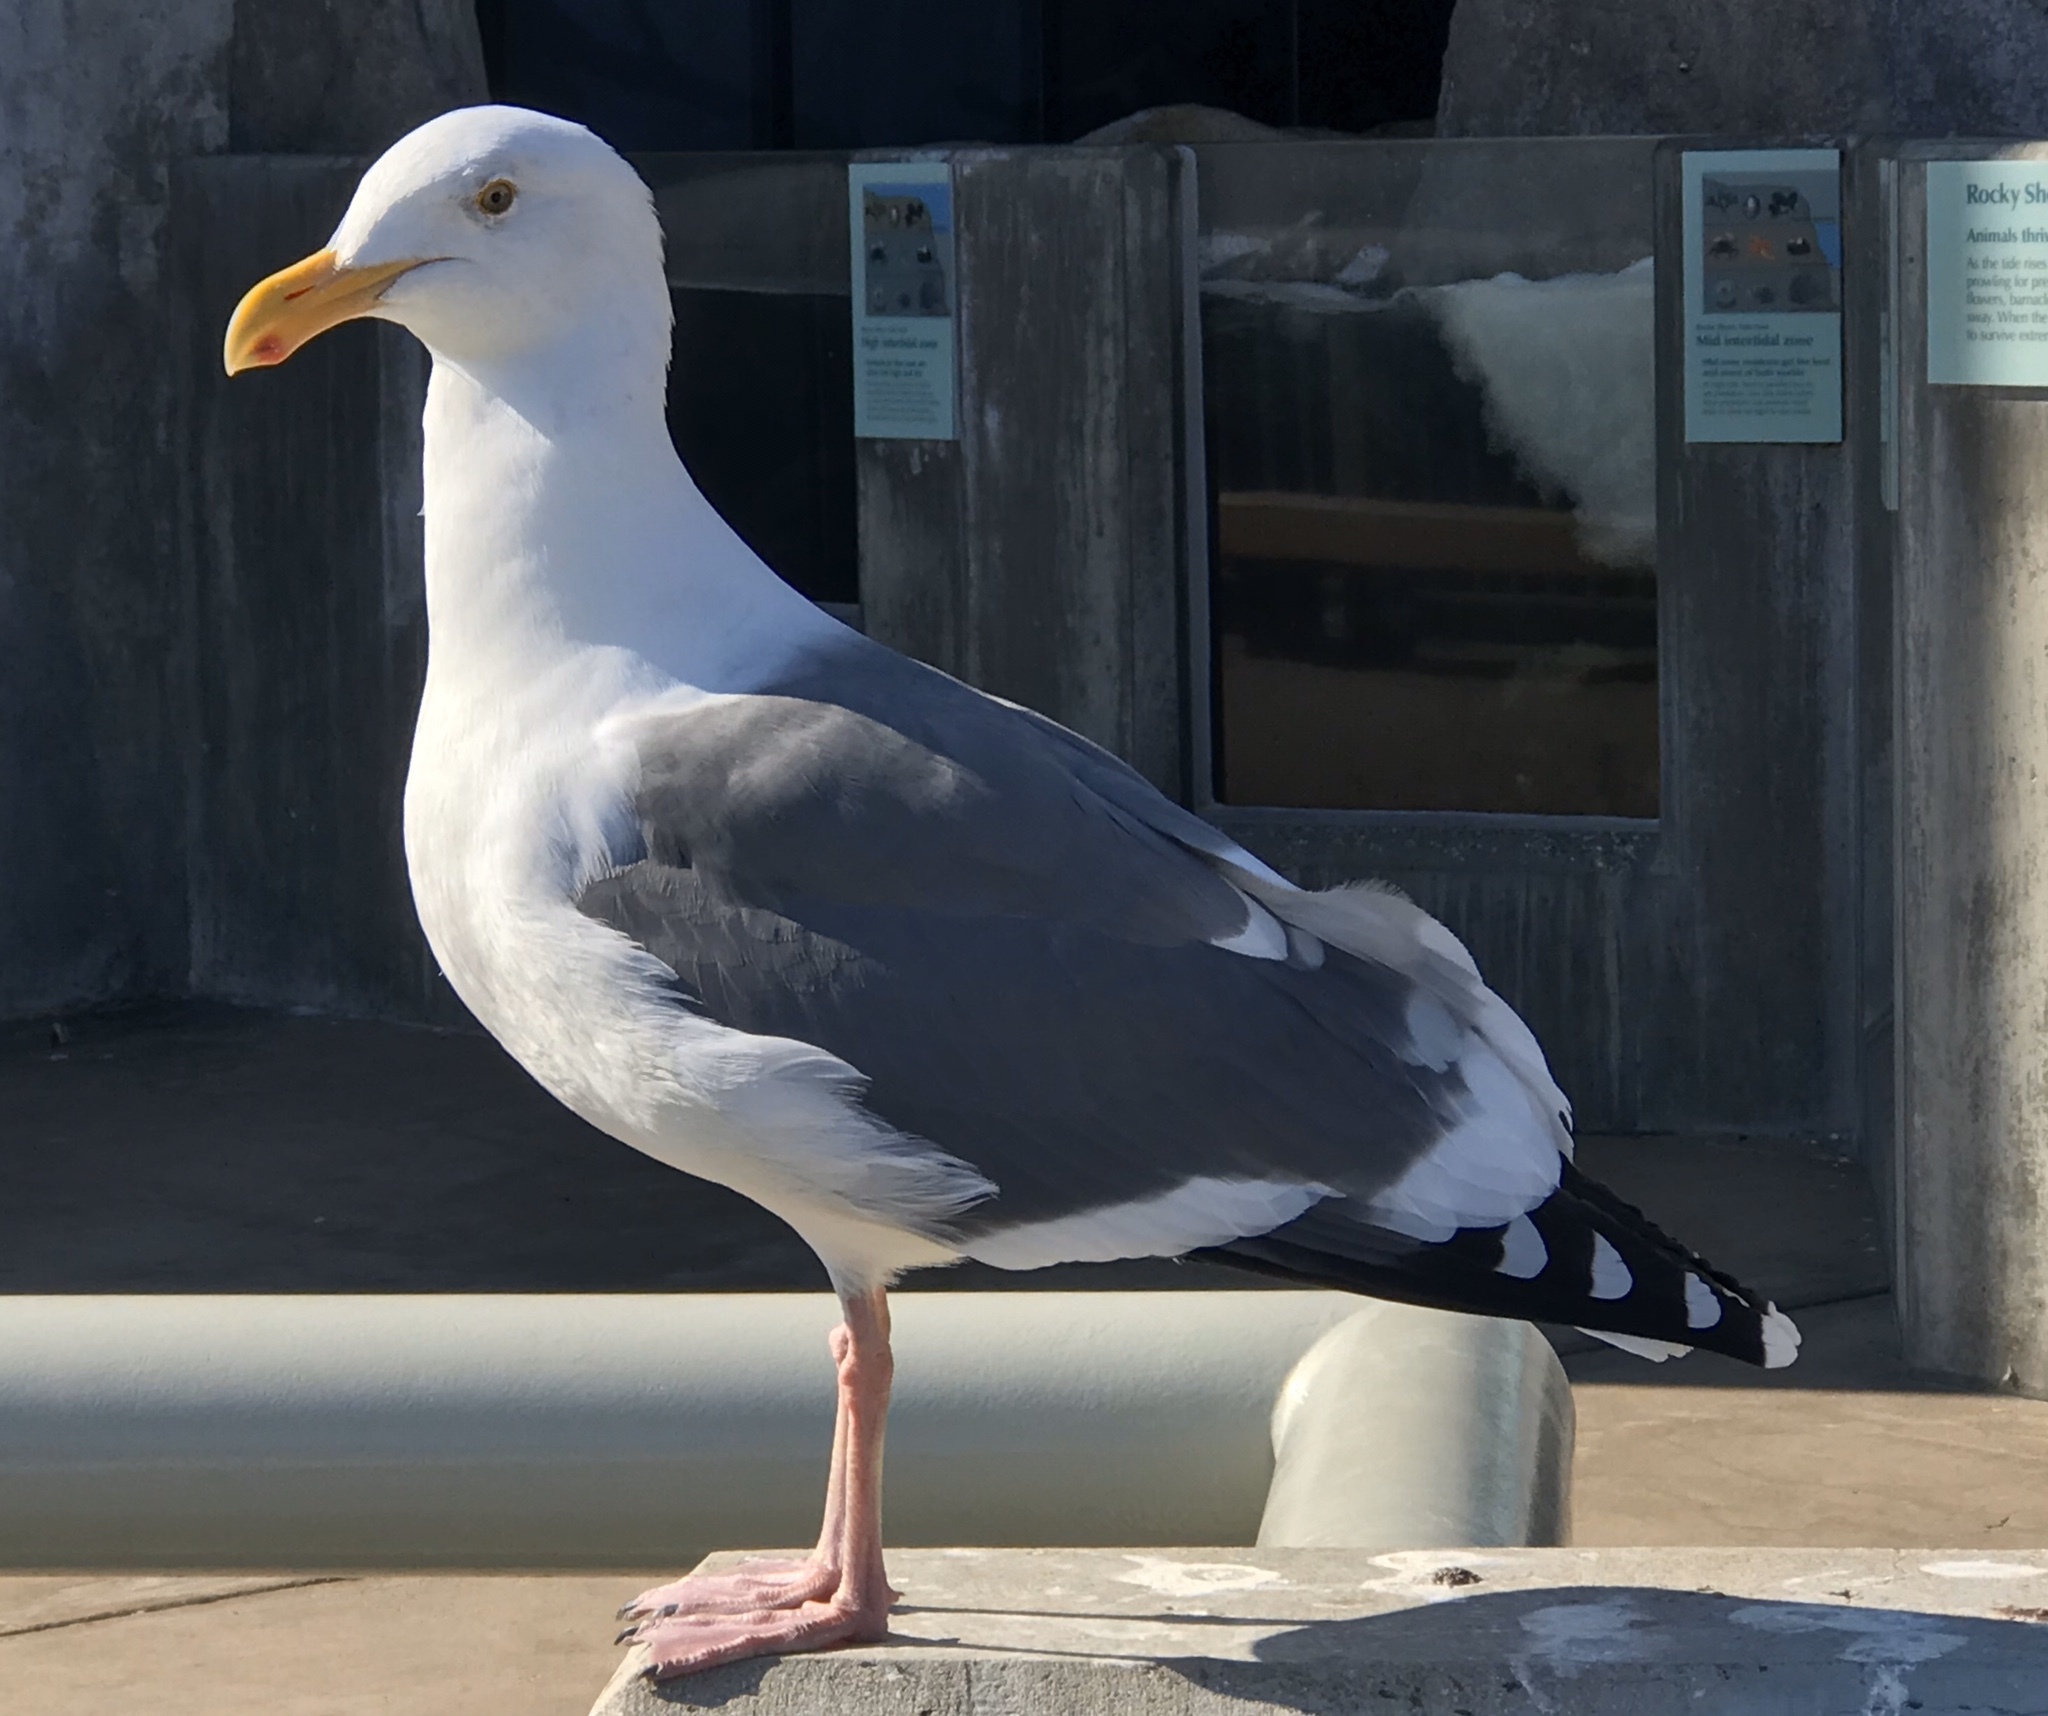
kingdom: Animalia
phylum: Chordata
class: Aves
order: Charadriiformes
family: Laridae
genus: Larus
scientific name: Larus occidentalis
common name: Western gull
